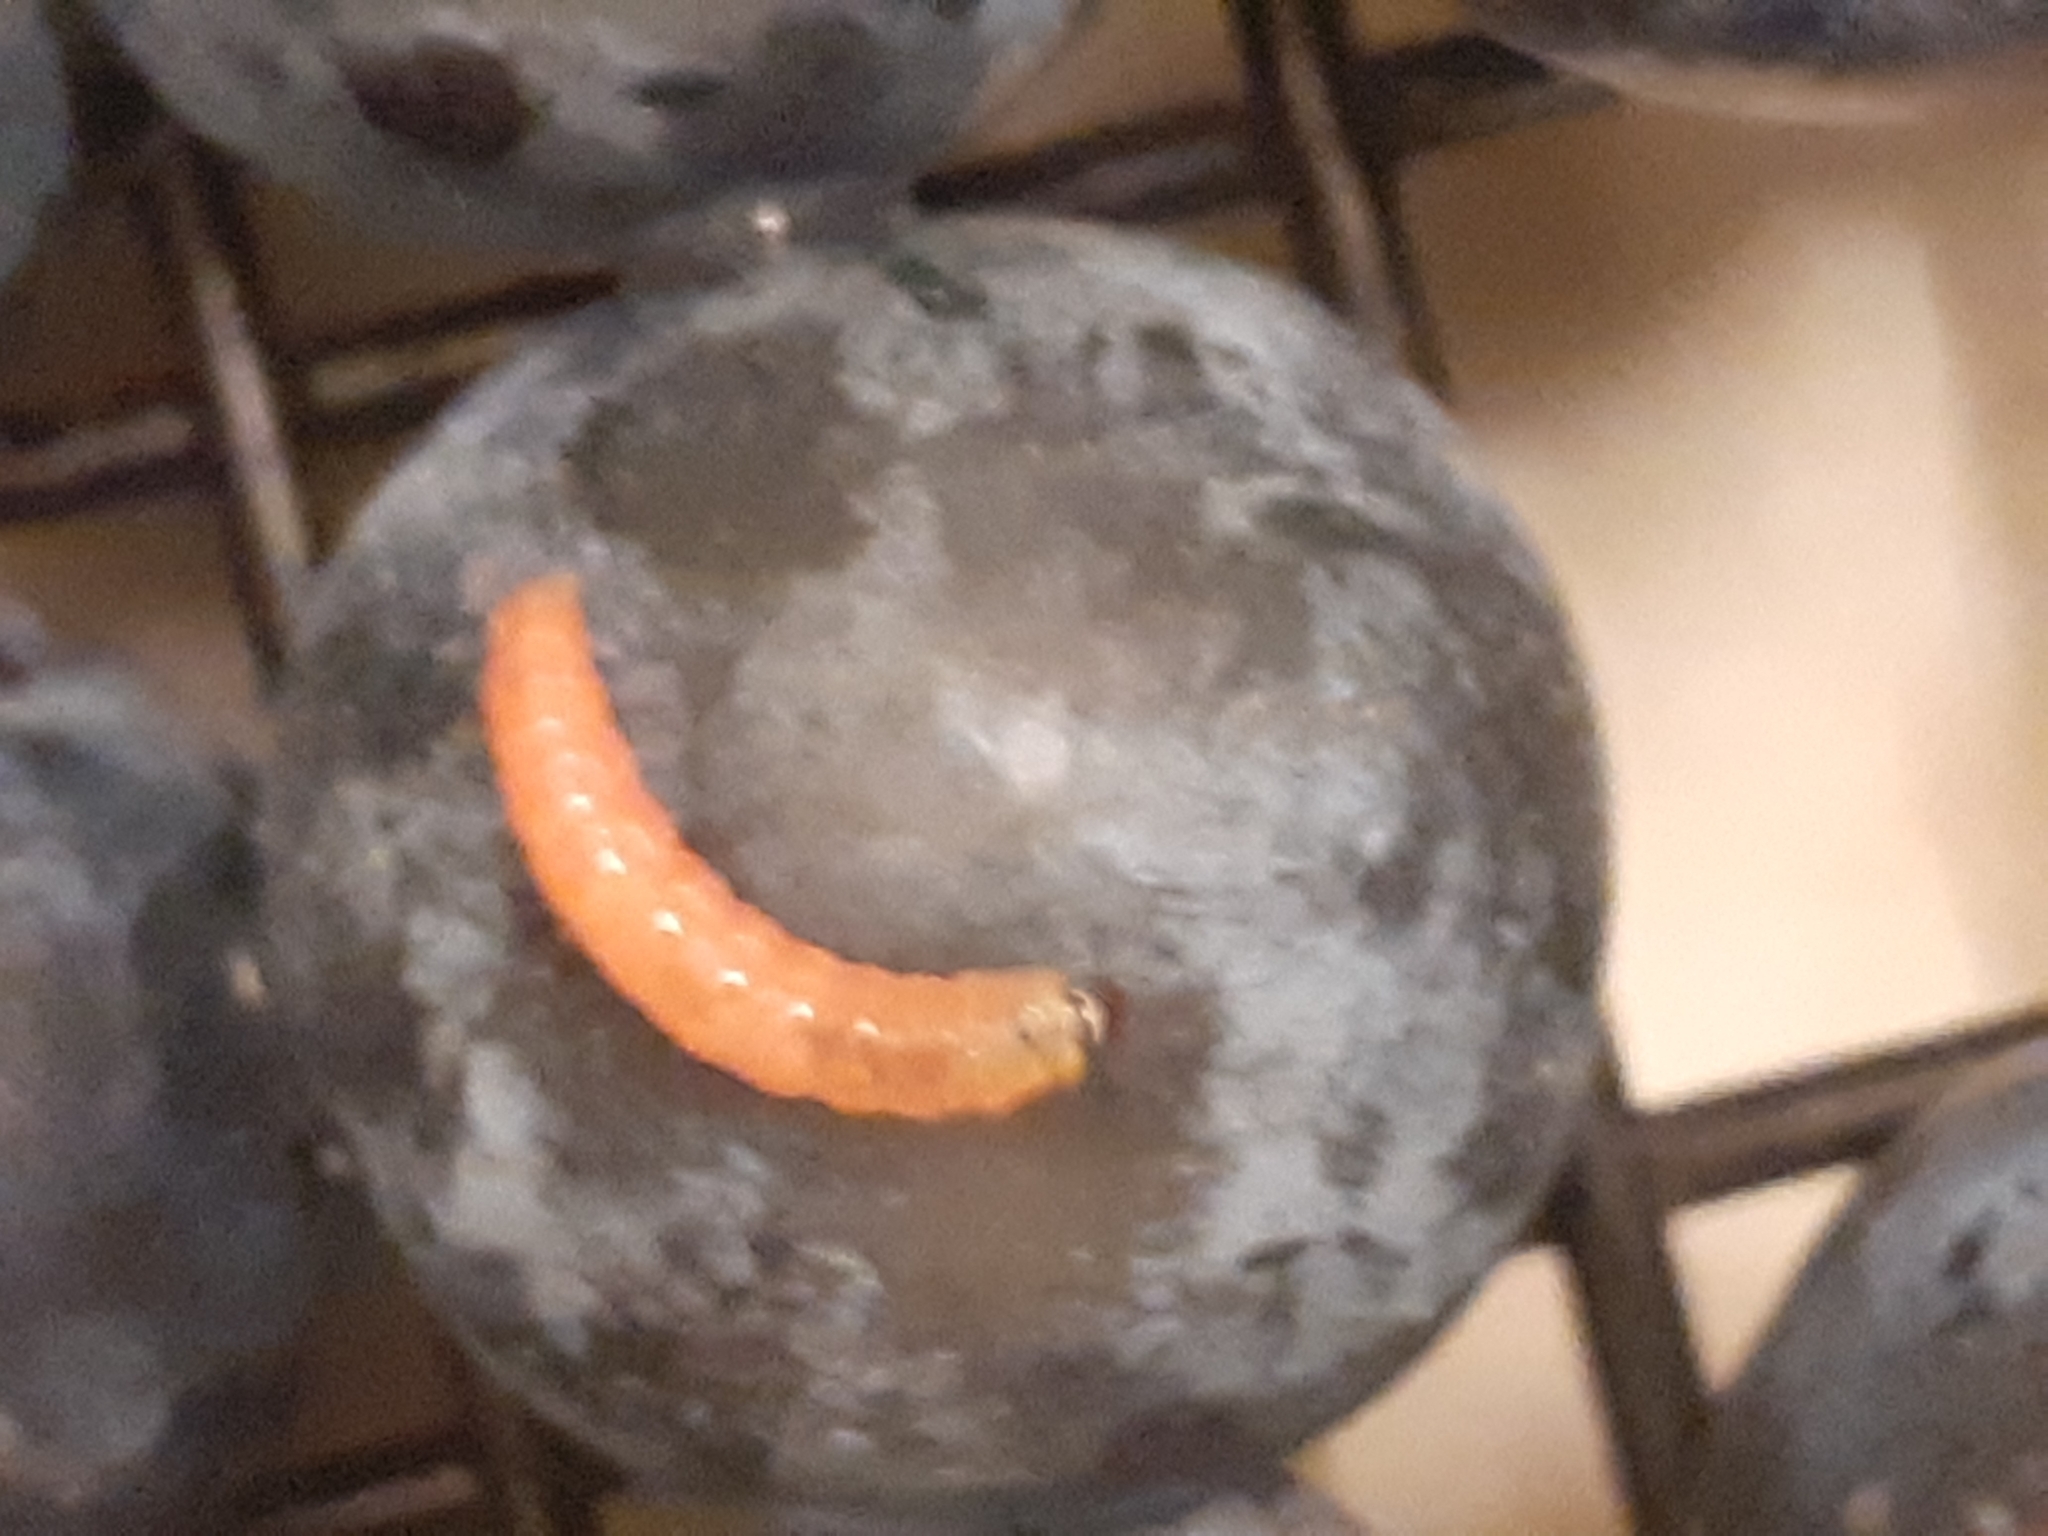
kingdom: Animalia
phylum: Arthropoda
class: Insecta
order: Lepidoptera
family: Noctuidae
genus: Aspila
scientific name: Aspila
